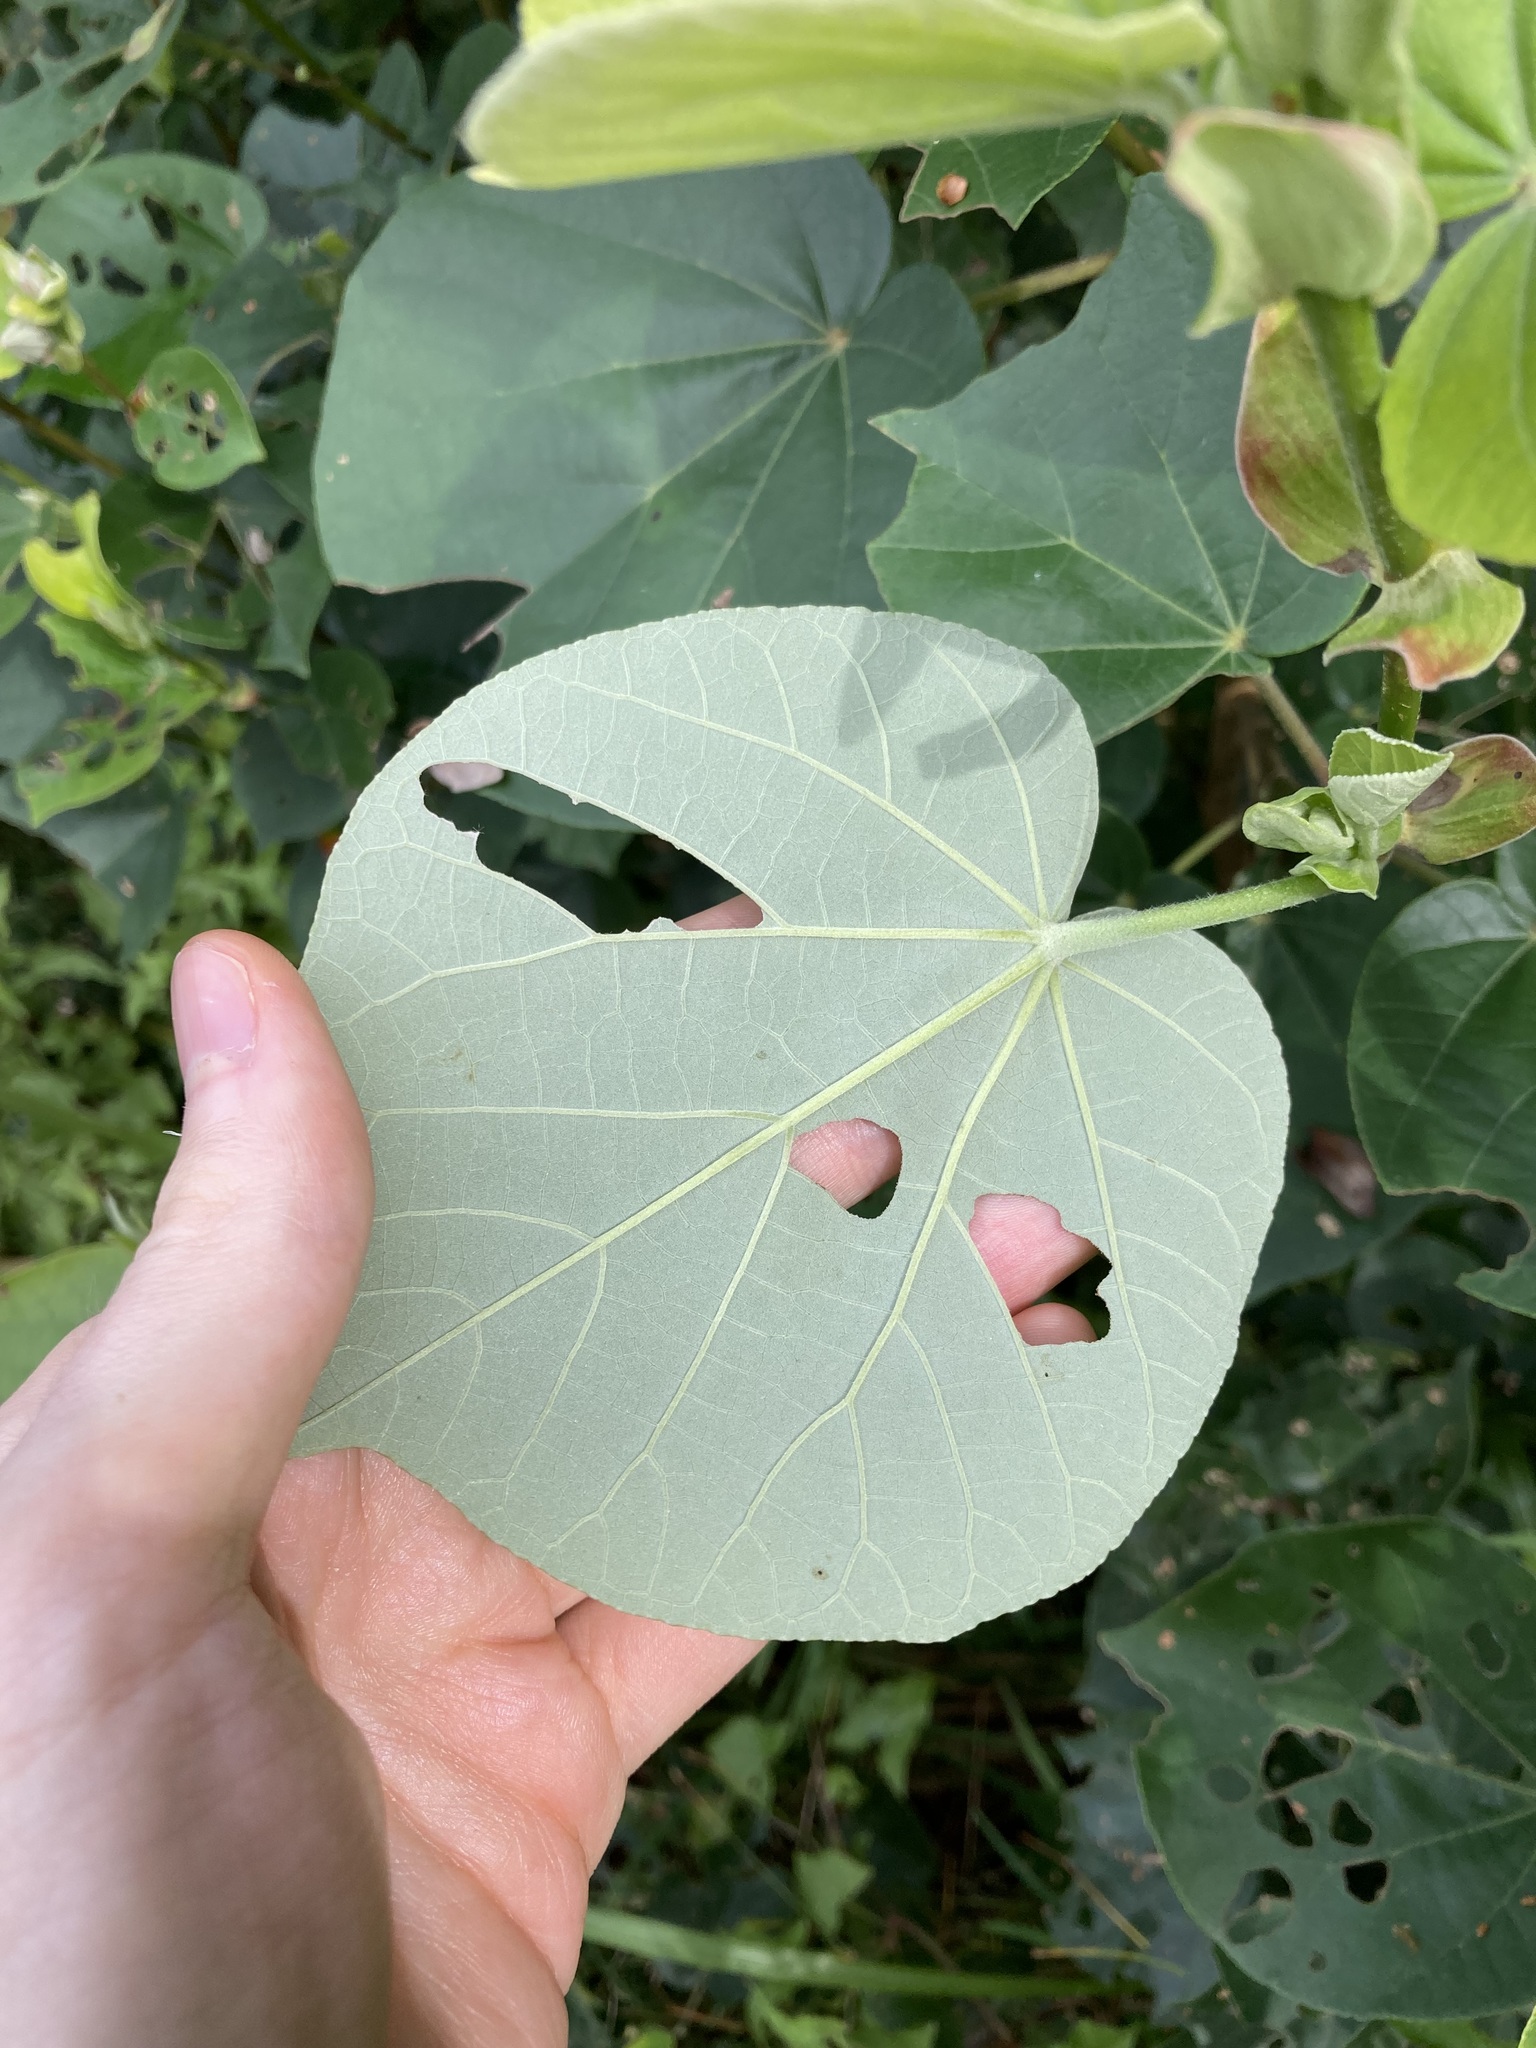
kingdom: Plantae
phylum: Tracheophyta
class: Magnoliopsida
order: Malvales
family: Malvaceae
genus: Talipariti
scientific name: Talipariti tiliaceum
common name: Sea hibiscus
